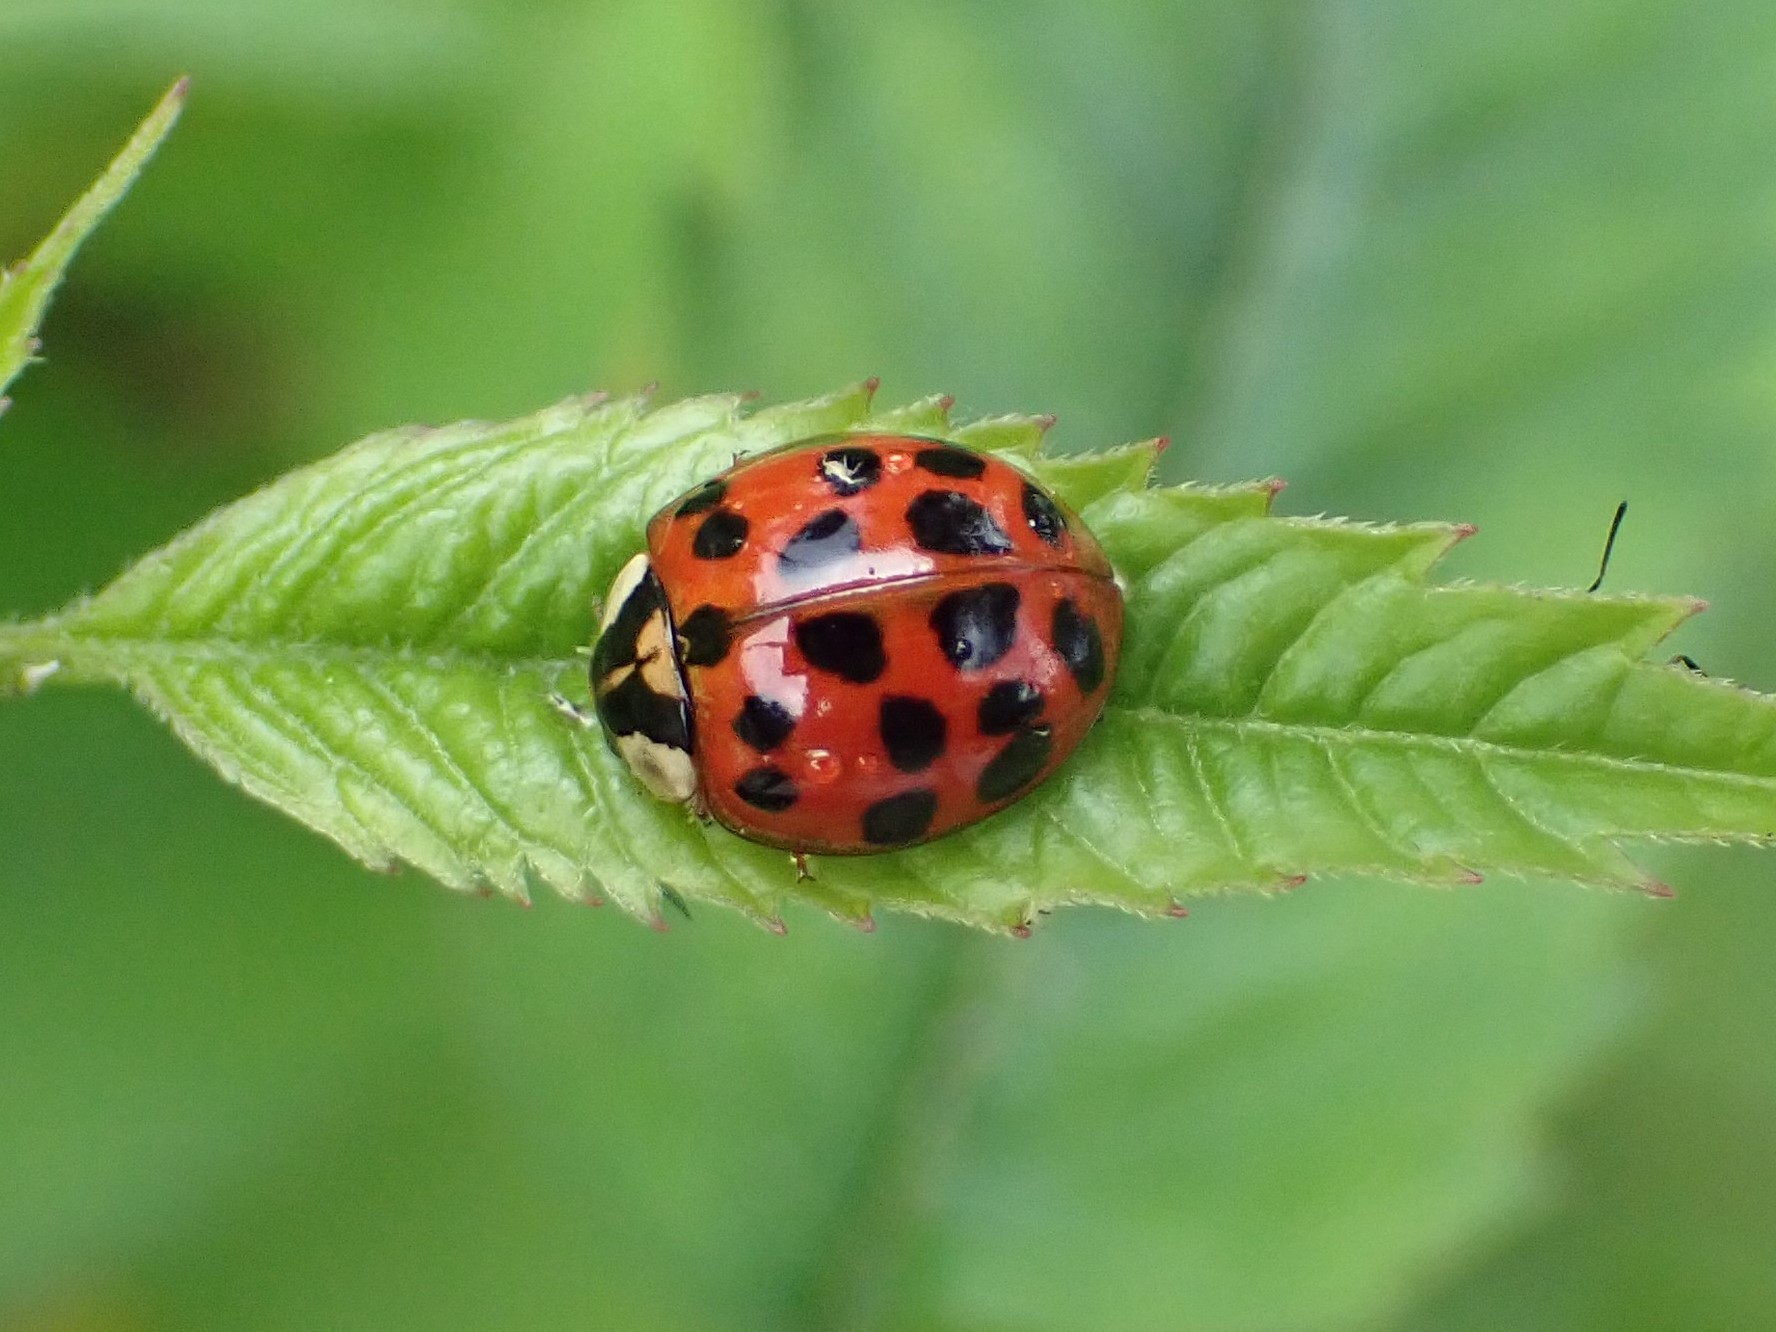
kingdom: Animalia
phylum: Arthropoda
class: Insecta
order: Coleoptera
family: Coccinellidae
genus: Harmonia
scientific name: Harmonia axyridis
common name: Harlequin ladybird
